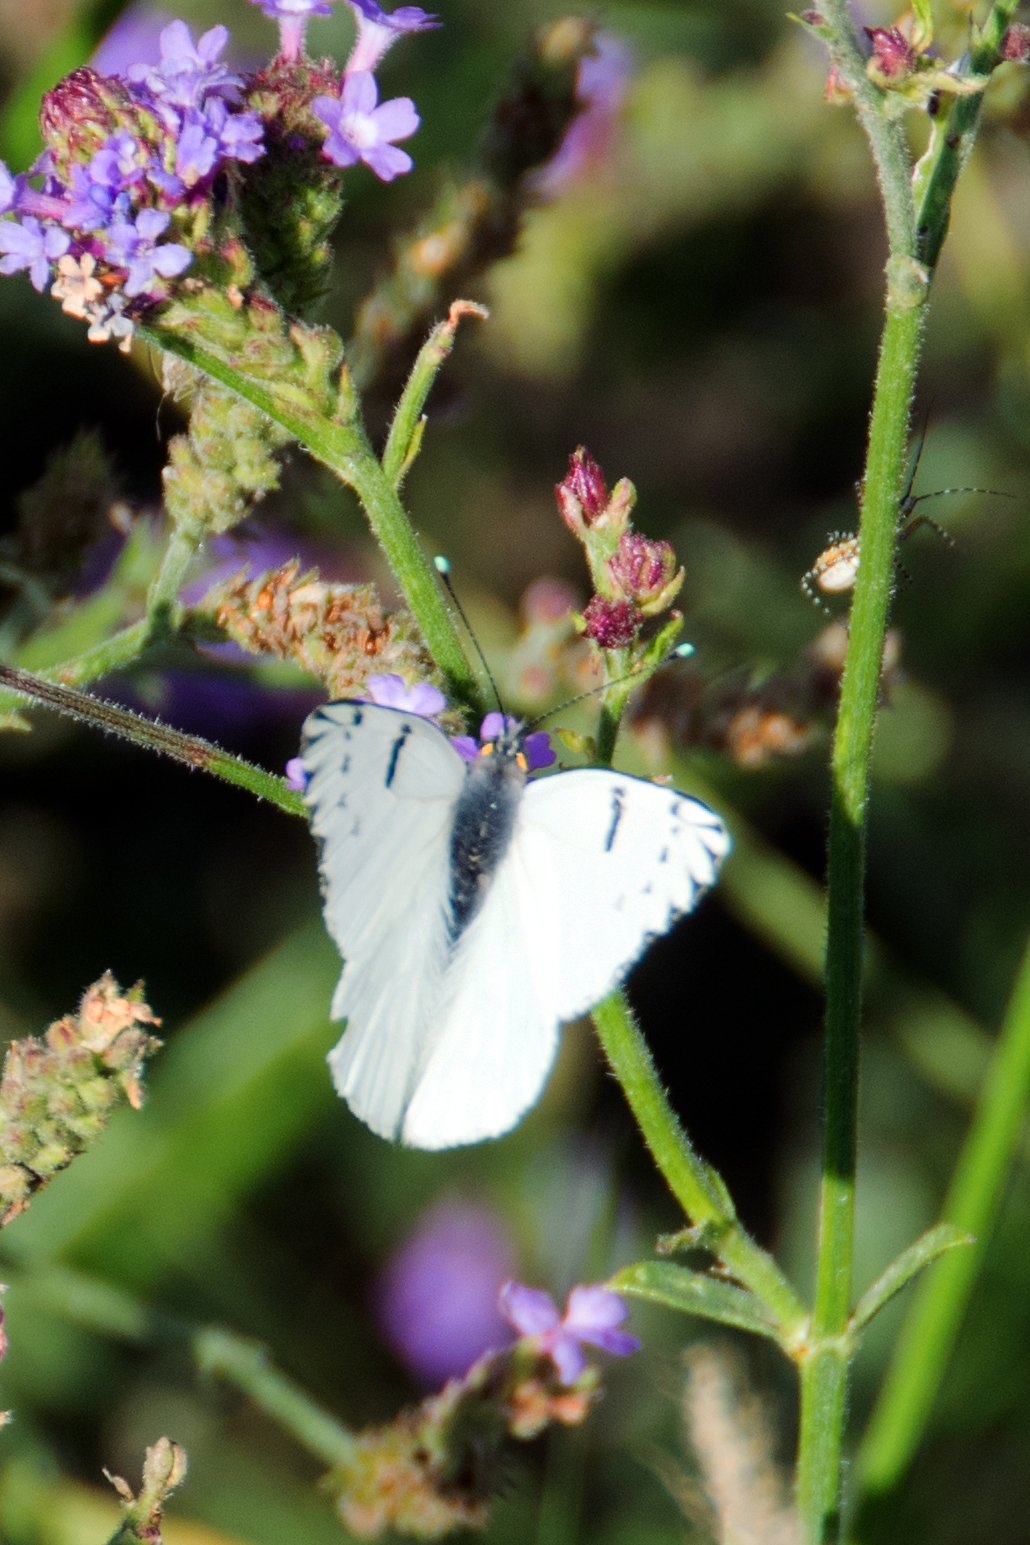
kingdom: Animalia
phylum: Arthropoda
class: Insecta
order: Lepidoptera
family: Pieridae
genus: Tatochila
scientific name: Tatochila mercedis
